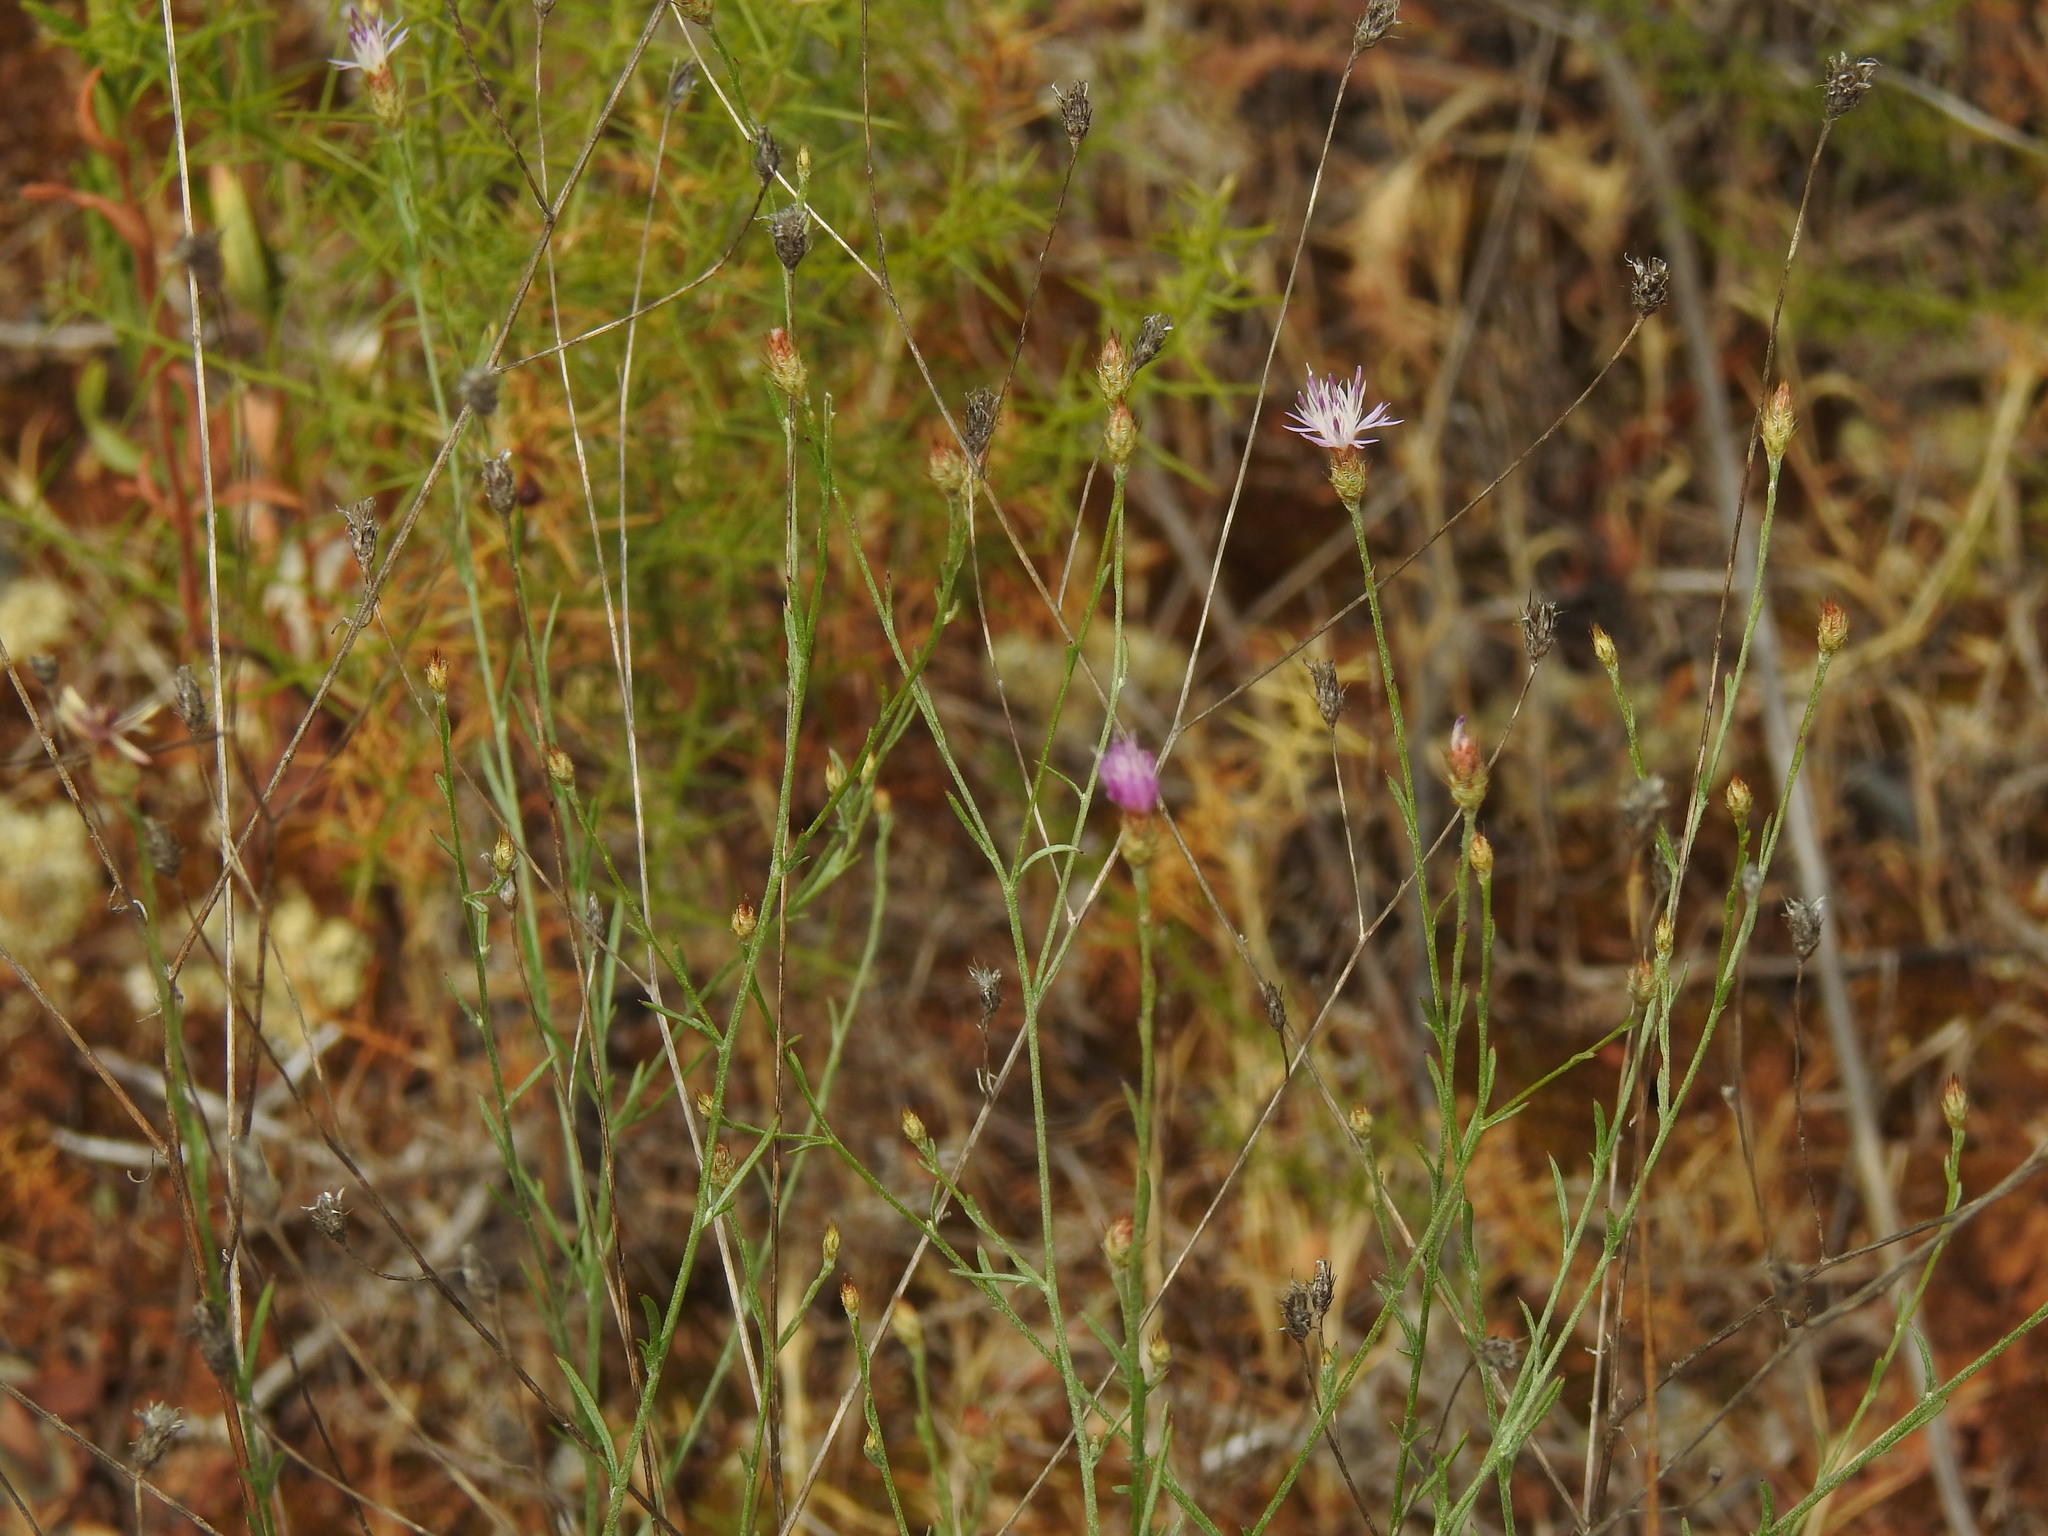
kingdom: Plantae
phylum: Tracheophyta
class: Magnoliopsida
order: Asterales
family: Asteraceae
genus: Centaurea
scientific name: Centaurea cordubensis
